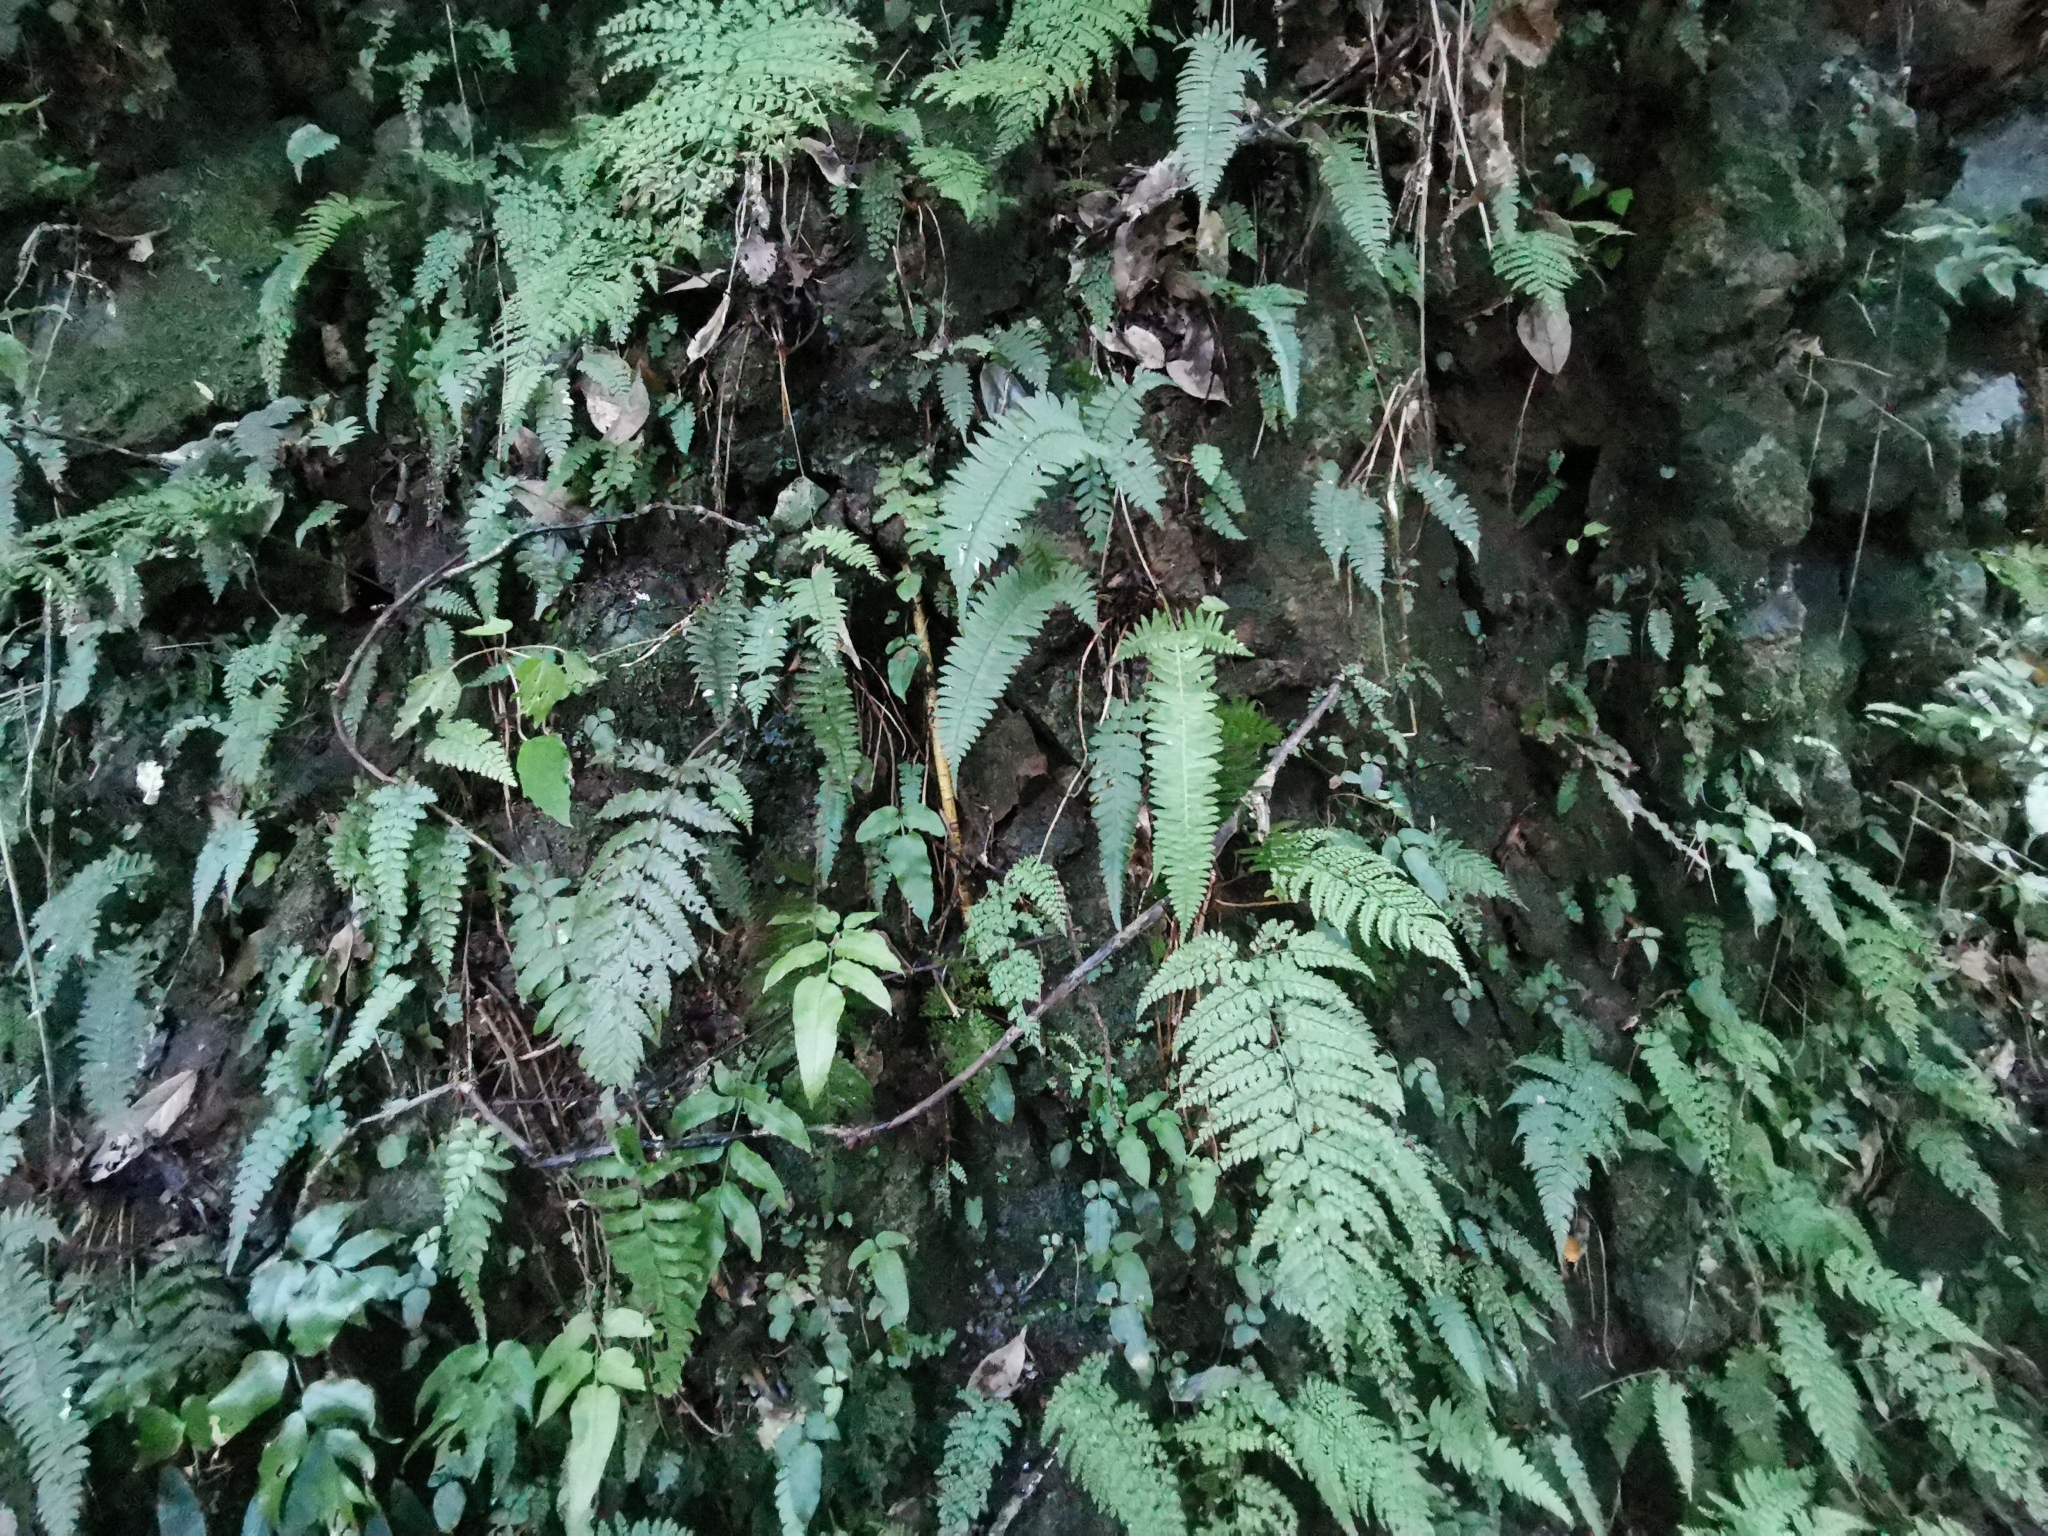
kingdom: Plantae
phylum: Tracheophyta
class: Polypodiopsida
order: Polypodiales
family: Dryopteridaceae
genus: Polystichum
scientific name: Polystichum tripteron
